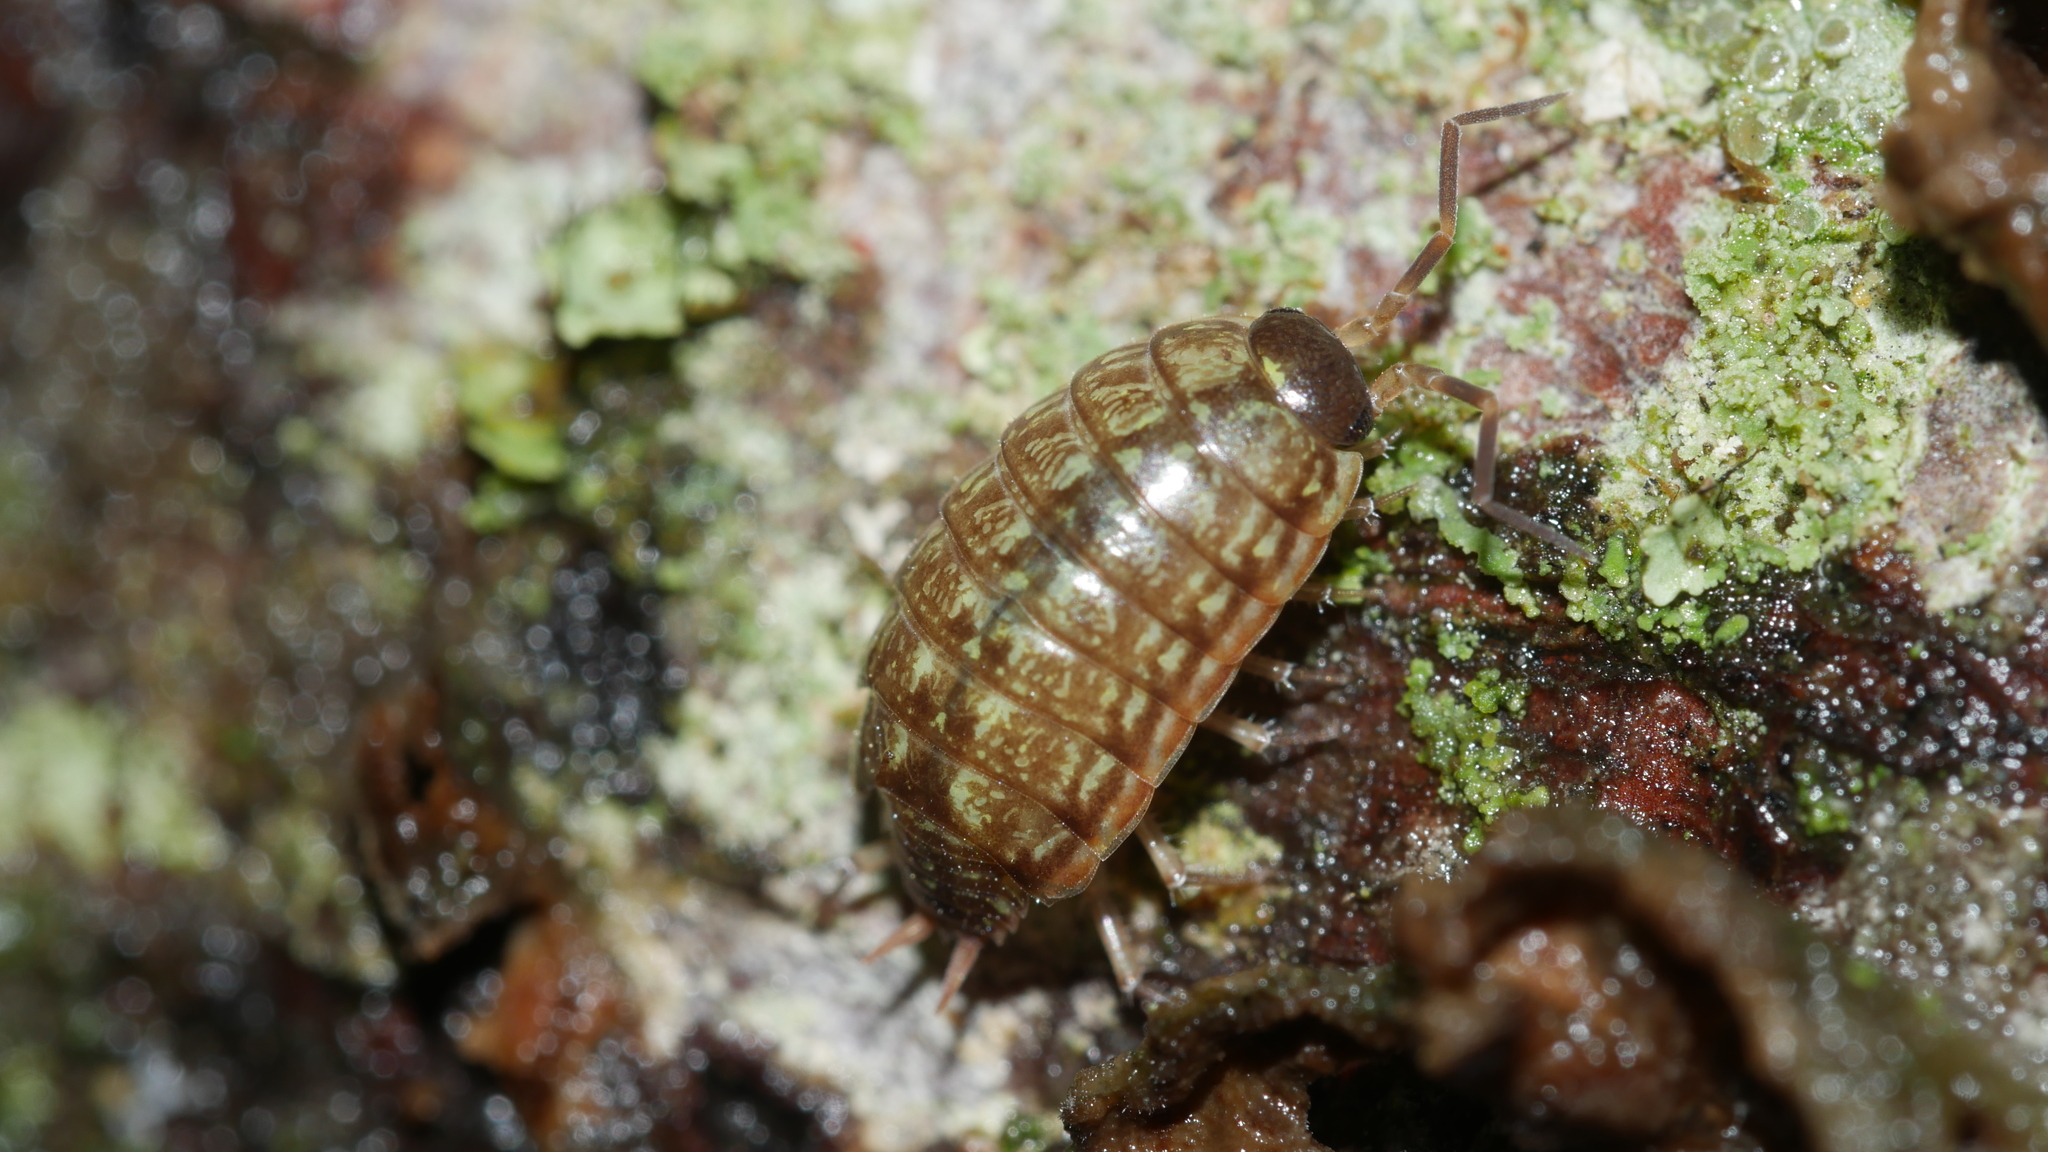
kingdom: Animalia
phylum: Arthropoda
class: Malacostraca
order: Isopoda
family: Philosciidae
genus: Philoscia
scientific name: Philoscia muscorum
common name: Common striped woodlouse
